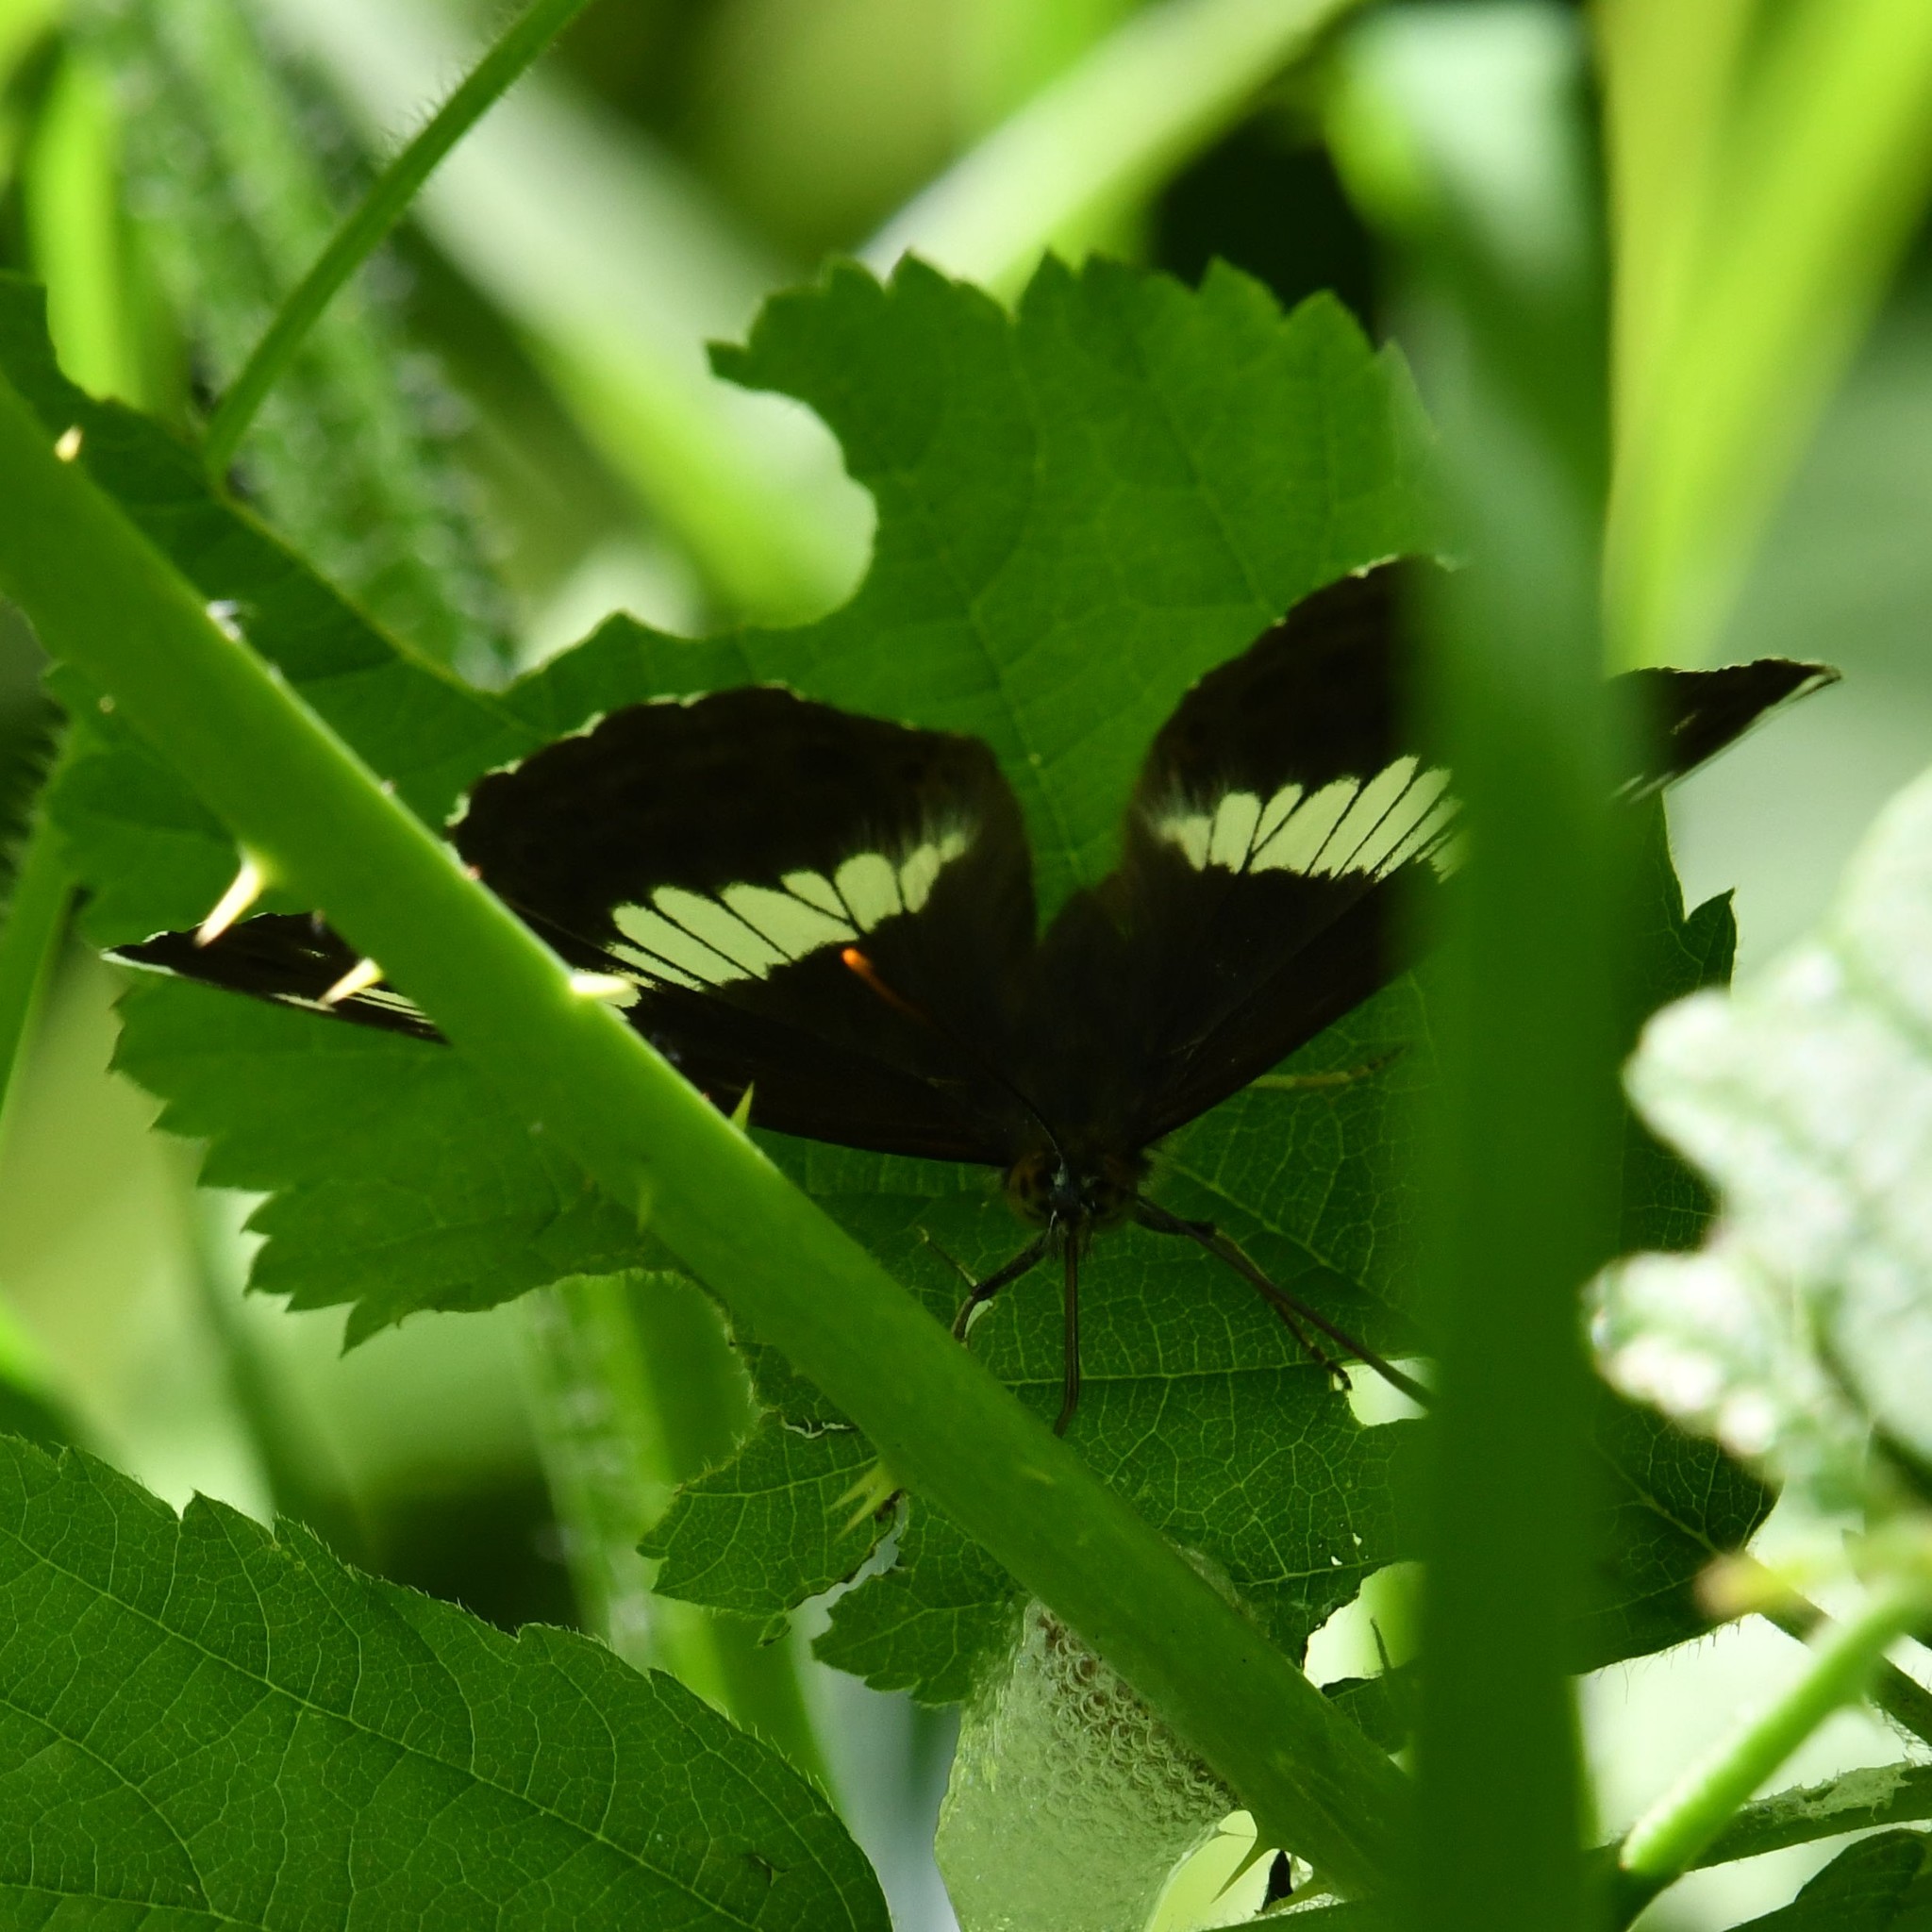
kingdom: Animalia
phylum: Arthropoda
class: Insecta
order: Lepidoptera
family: Nymphalidae
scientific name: Nymphalidae
